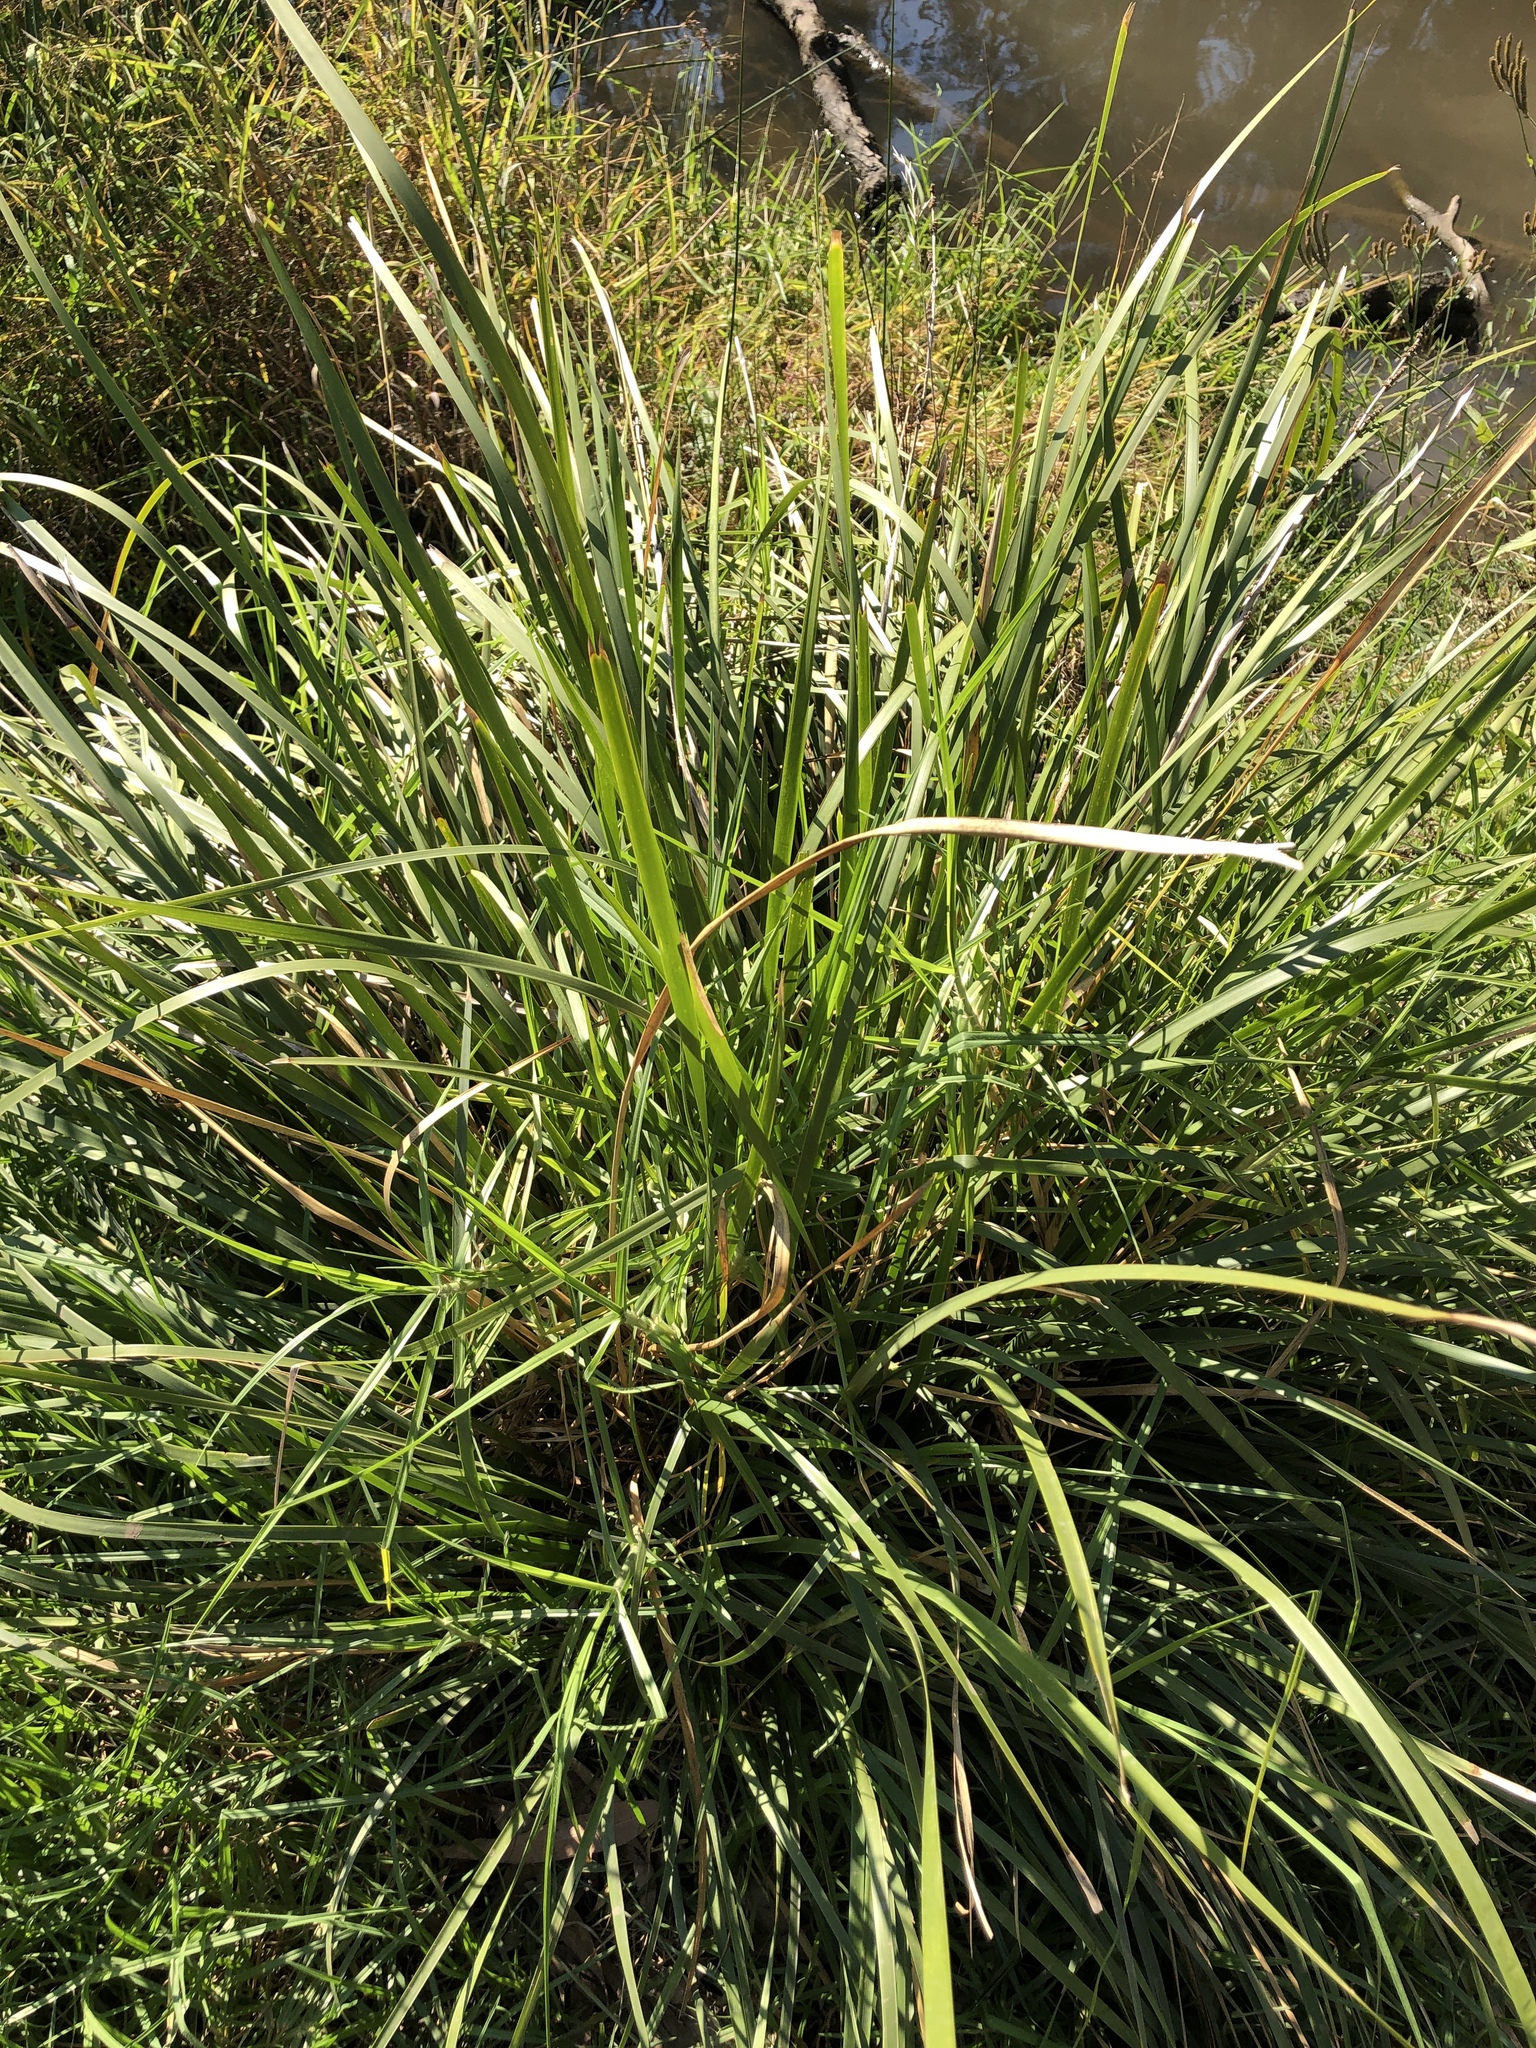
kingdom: Plantae
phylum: Tracheophyta
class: Liliopsida
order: Asparagales
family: Asparagaceae
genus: Lomandra
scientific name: Lomandra longifolia
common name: Longleaf mat-rush
